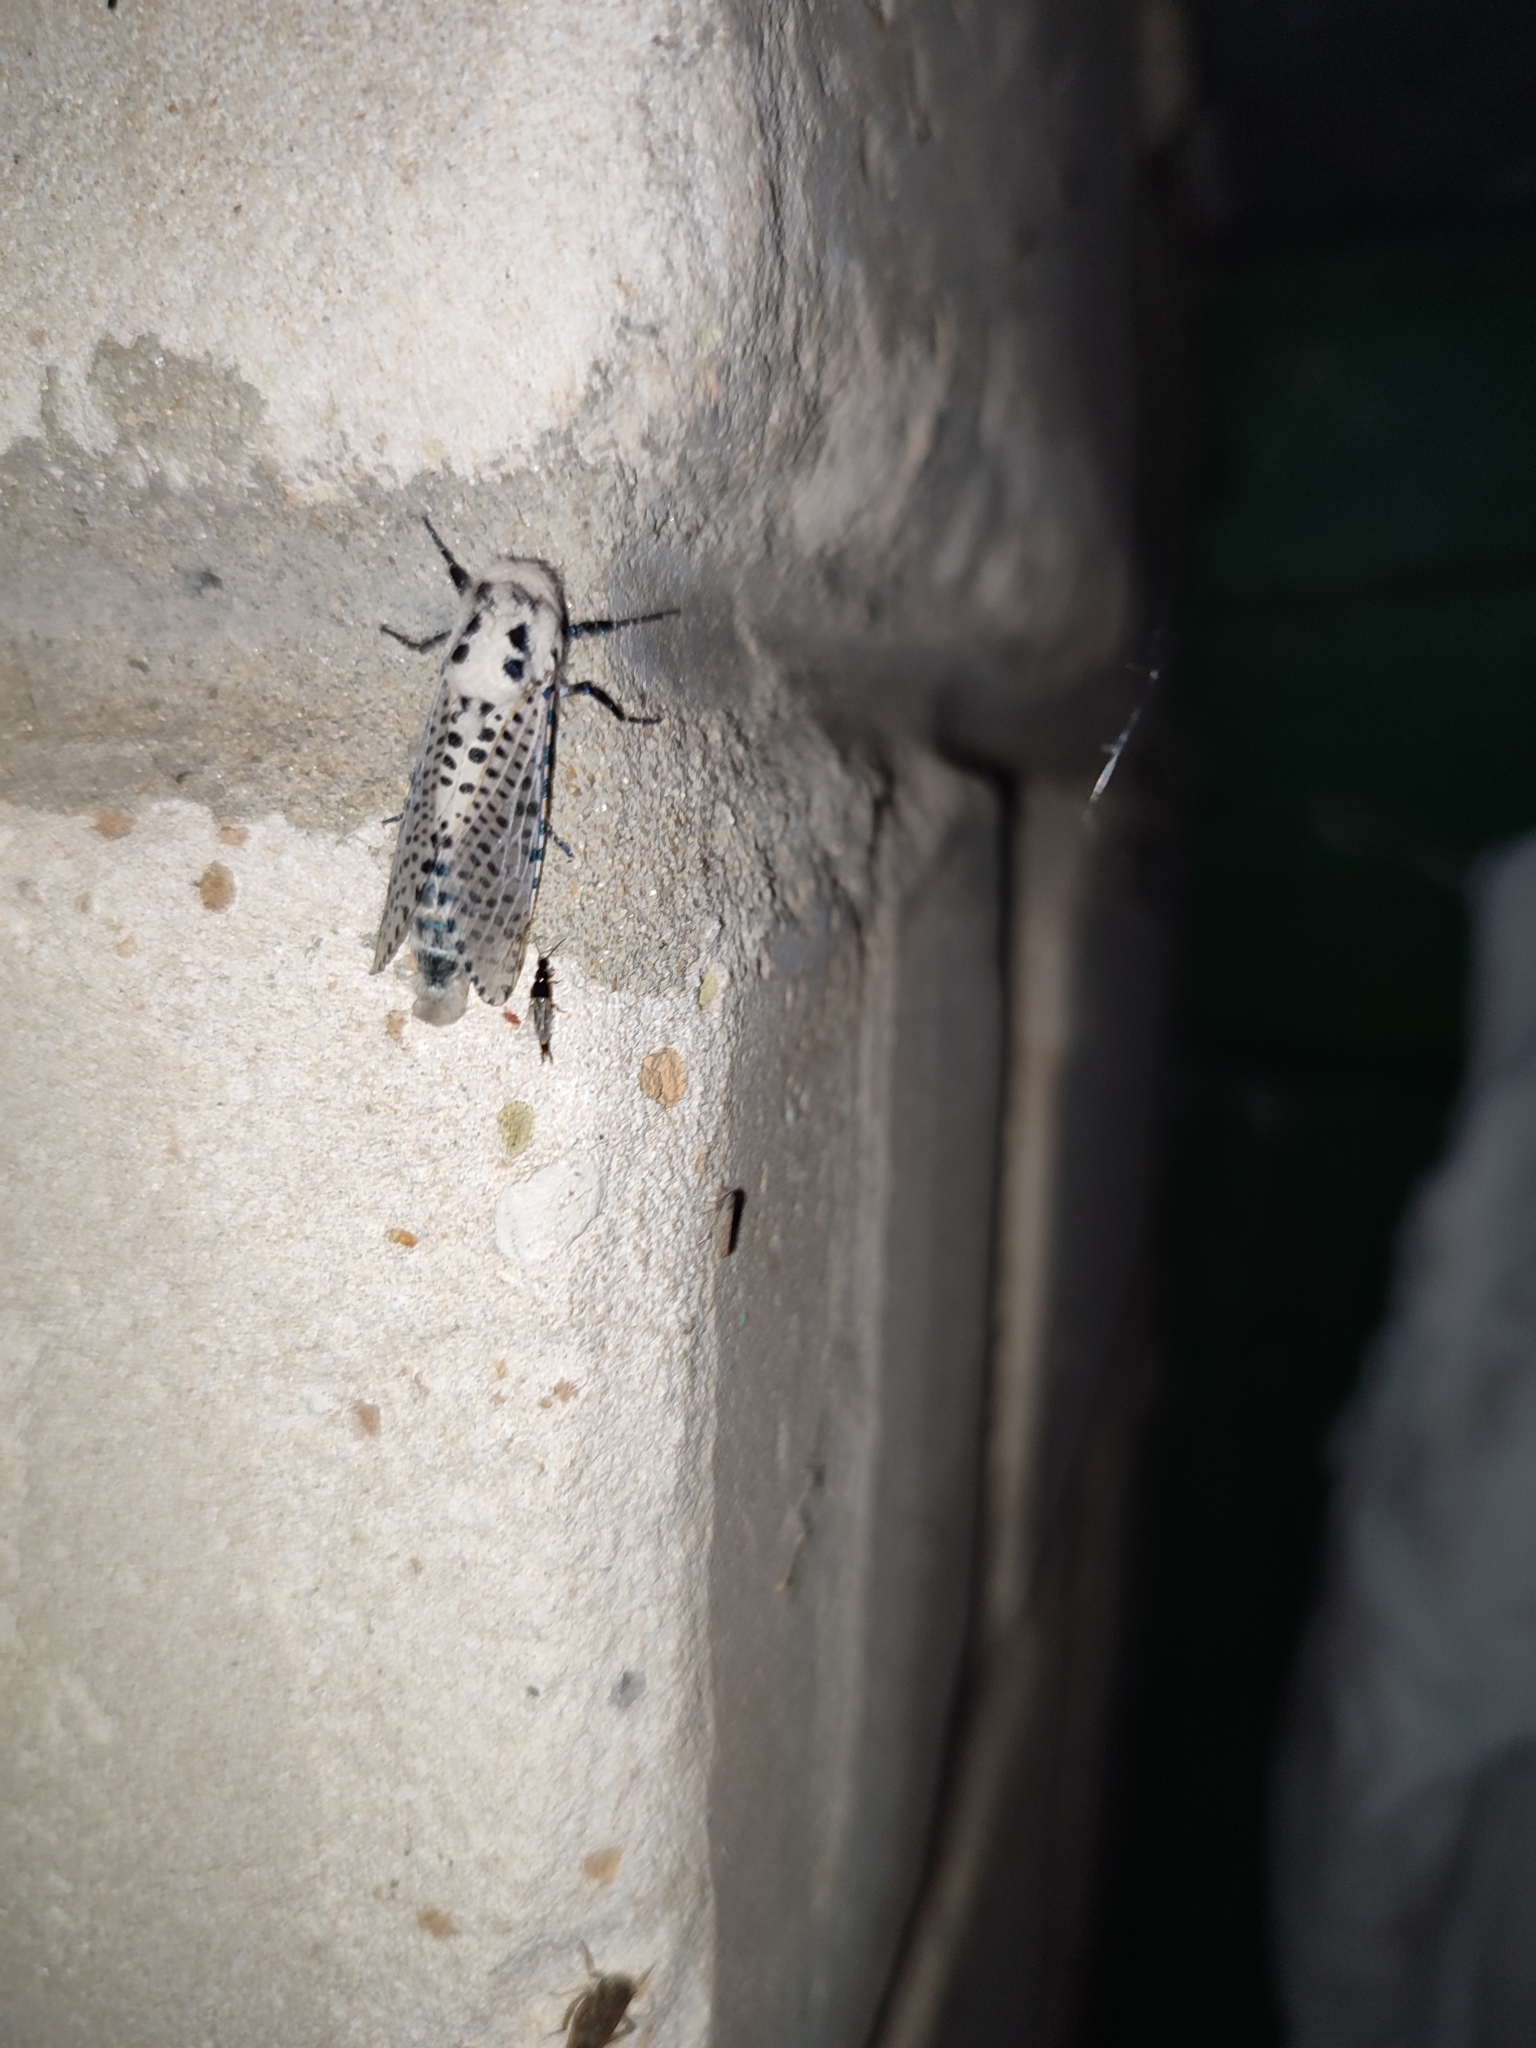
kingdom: Animalia
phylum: Arthropoda
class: Insecta
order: Lepidoptera
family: Cossidae
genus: Zeuzera
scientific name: Zeuzera pyrina
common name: Leopard moth
